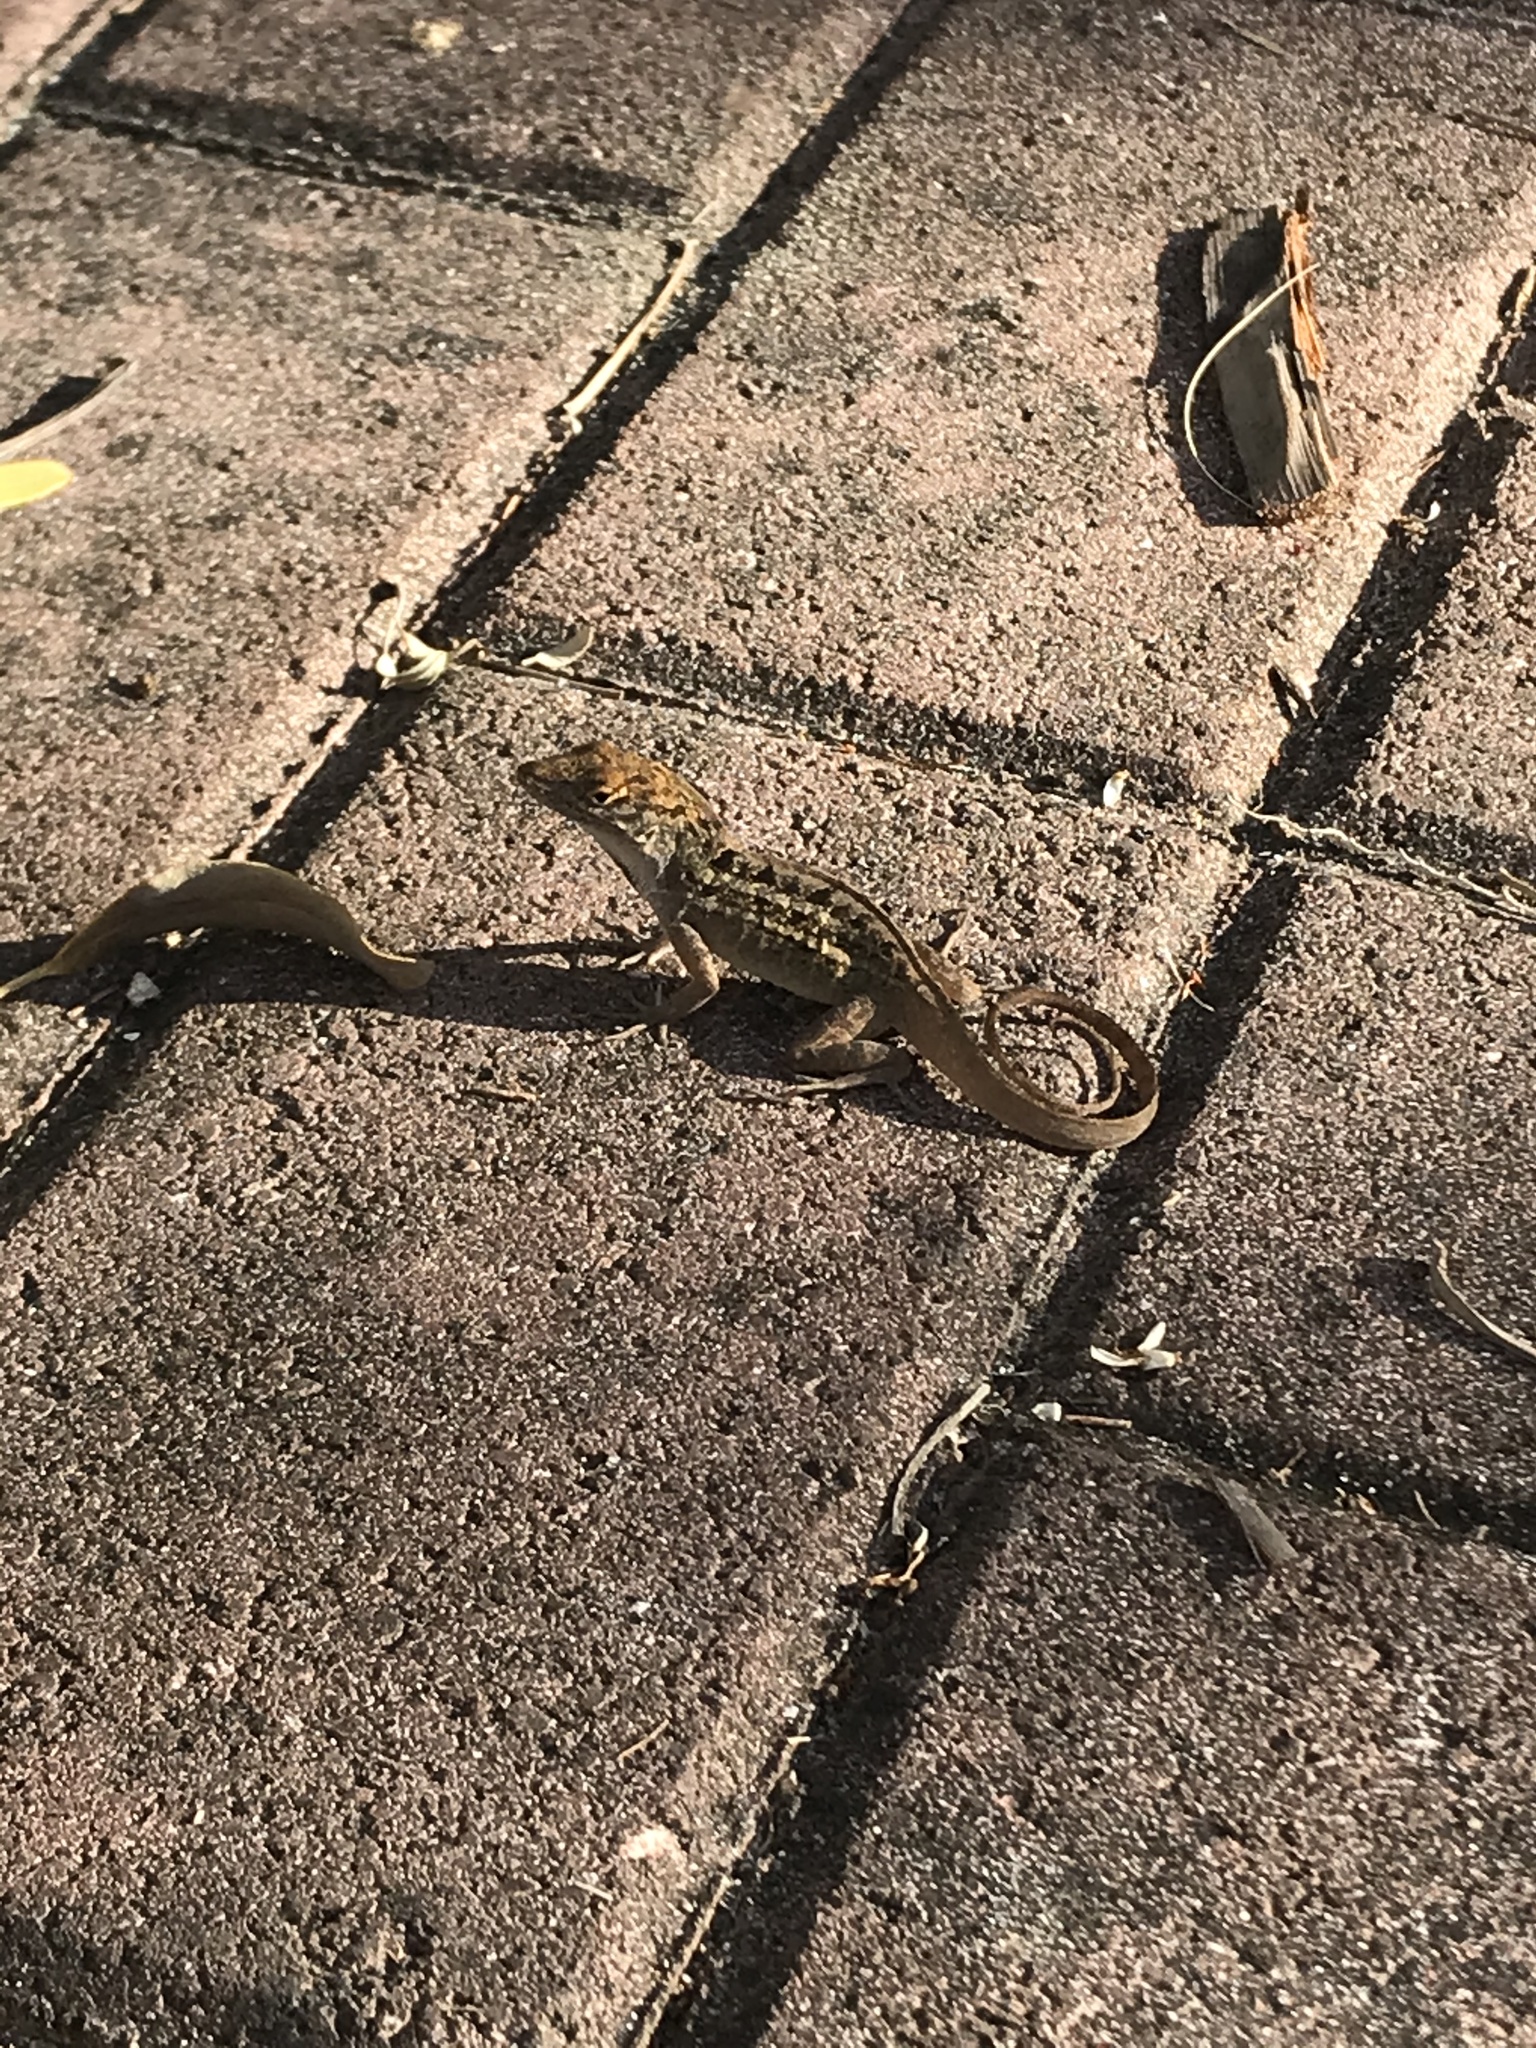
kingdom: Animalia
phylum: Chordata
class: Squamata
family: Dactyloidae
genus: Anolis
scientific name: Anolis sagrei
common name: Brown anole
